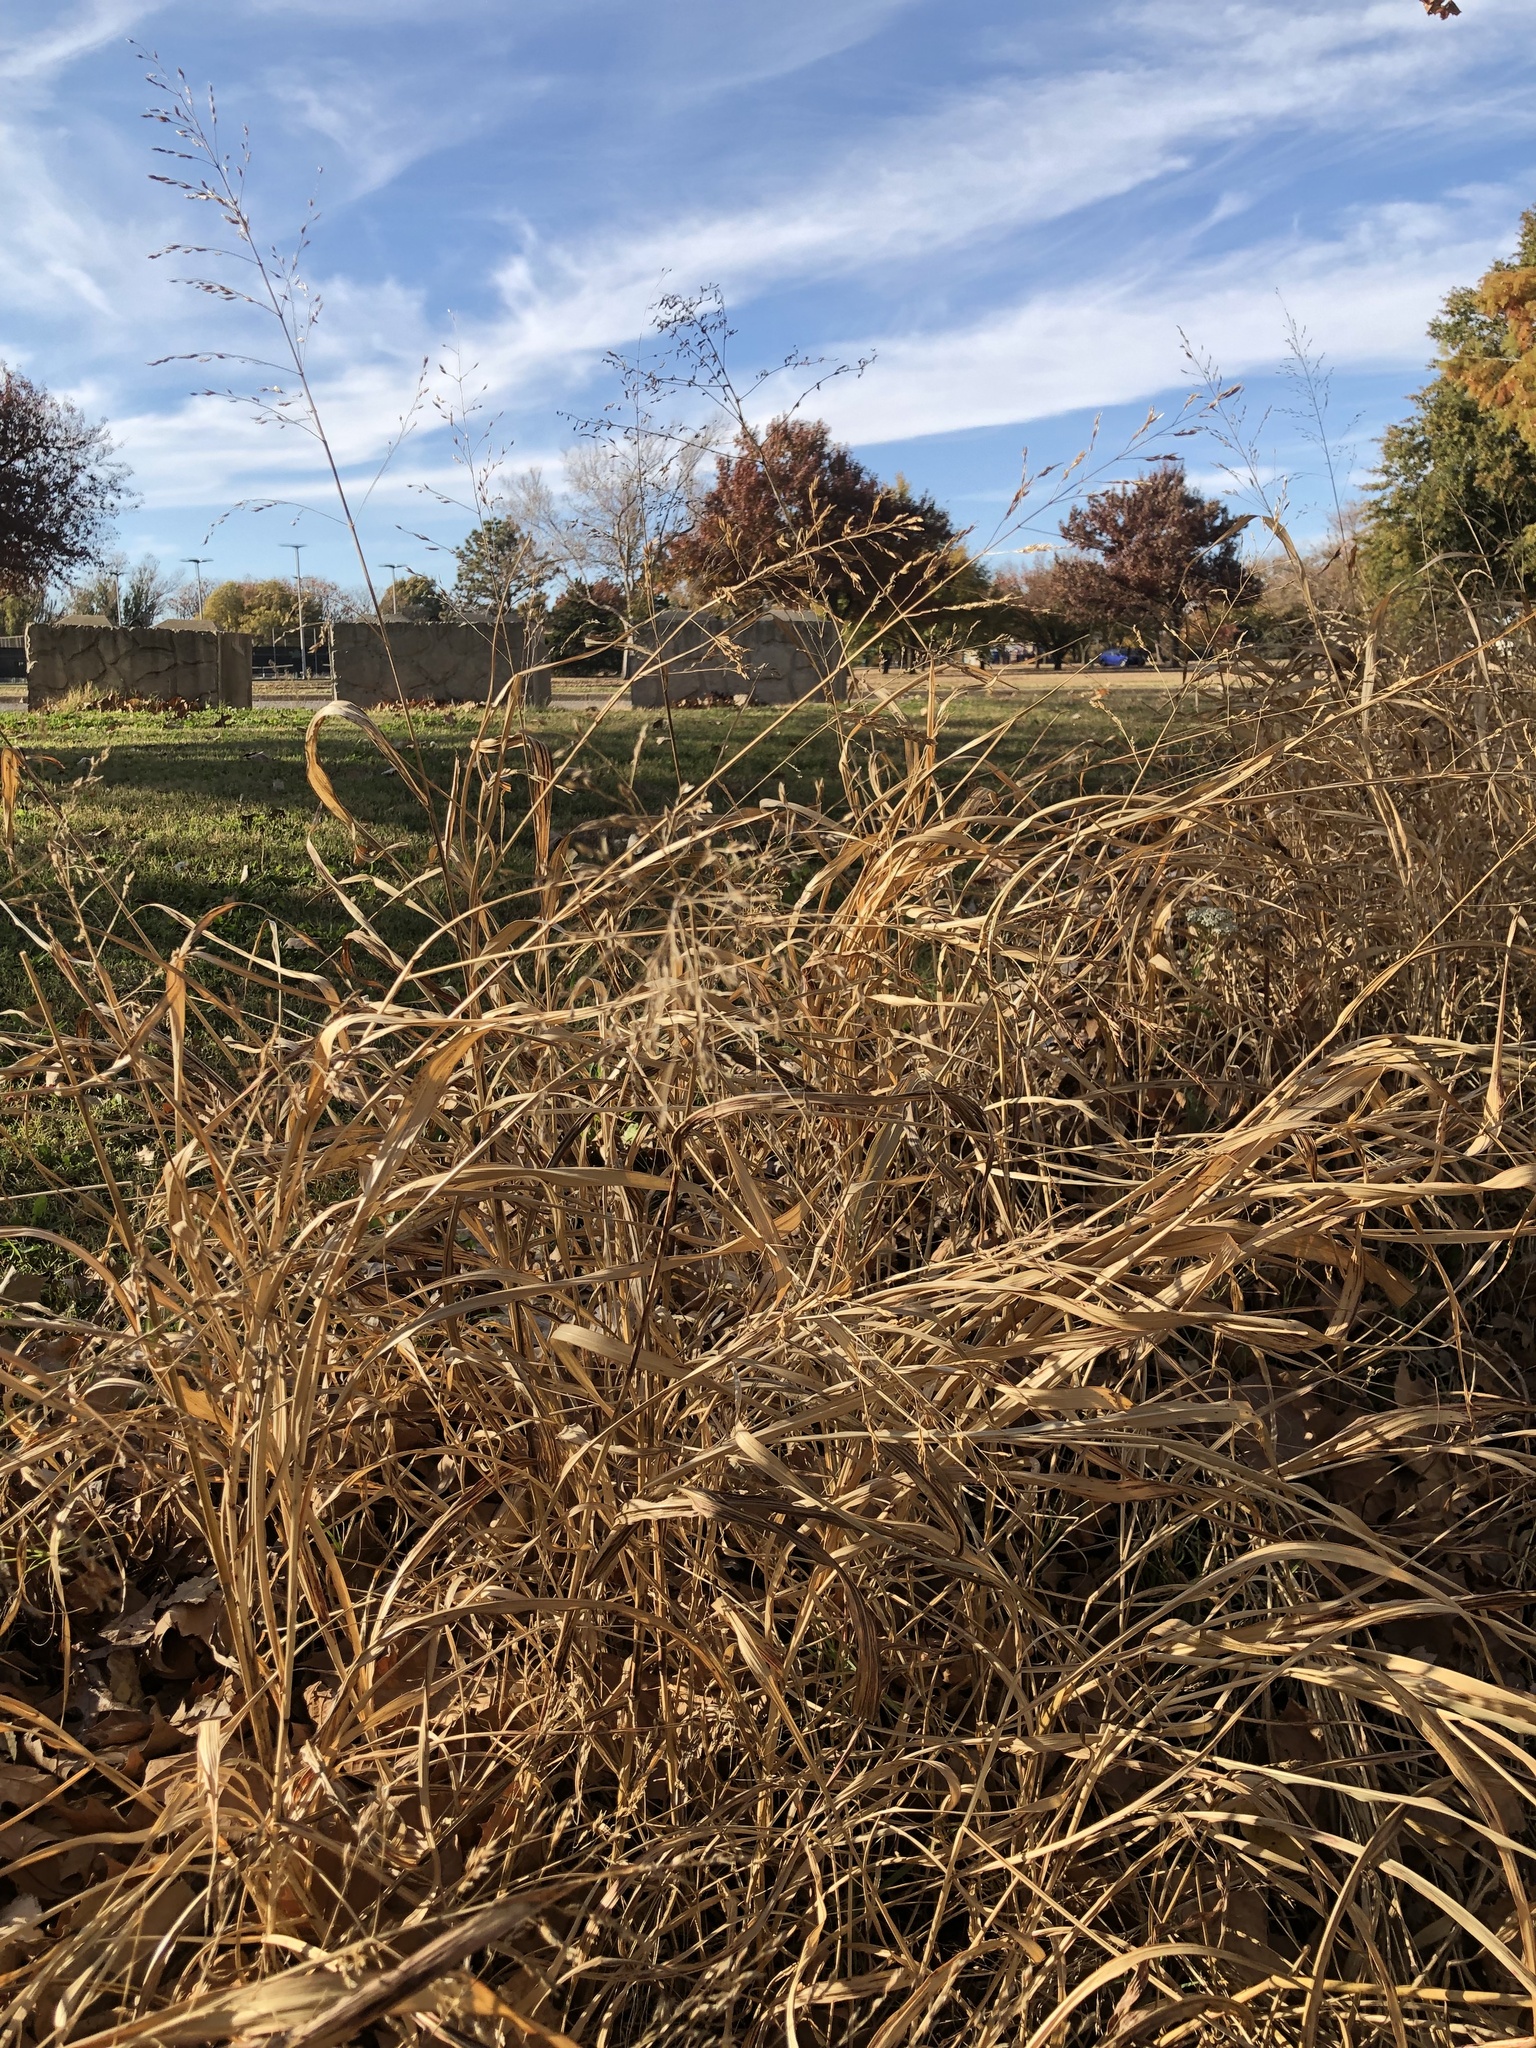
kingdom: Plantae
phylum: Tracheophyta
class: Liliopsida
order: Poales
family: Poaceae
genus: Sorghum
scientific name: Sorghum halepense
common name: Johnson-grass
